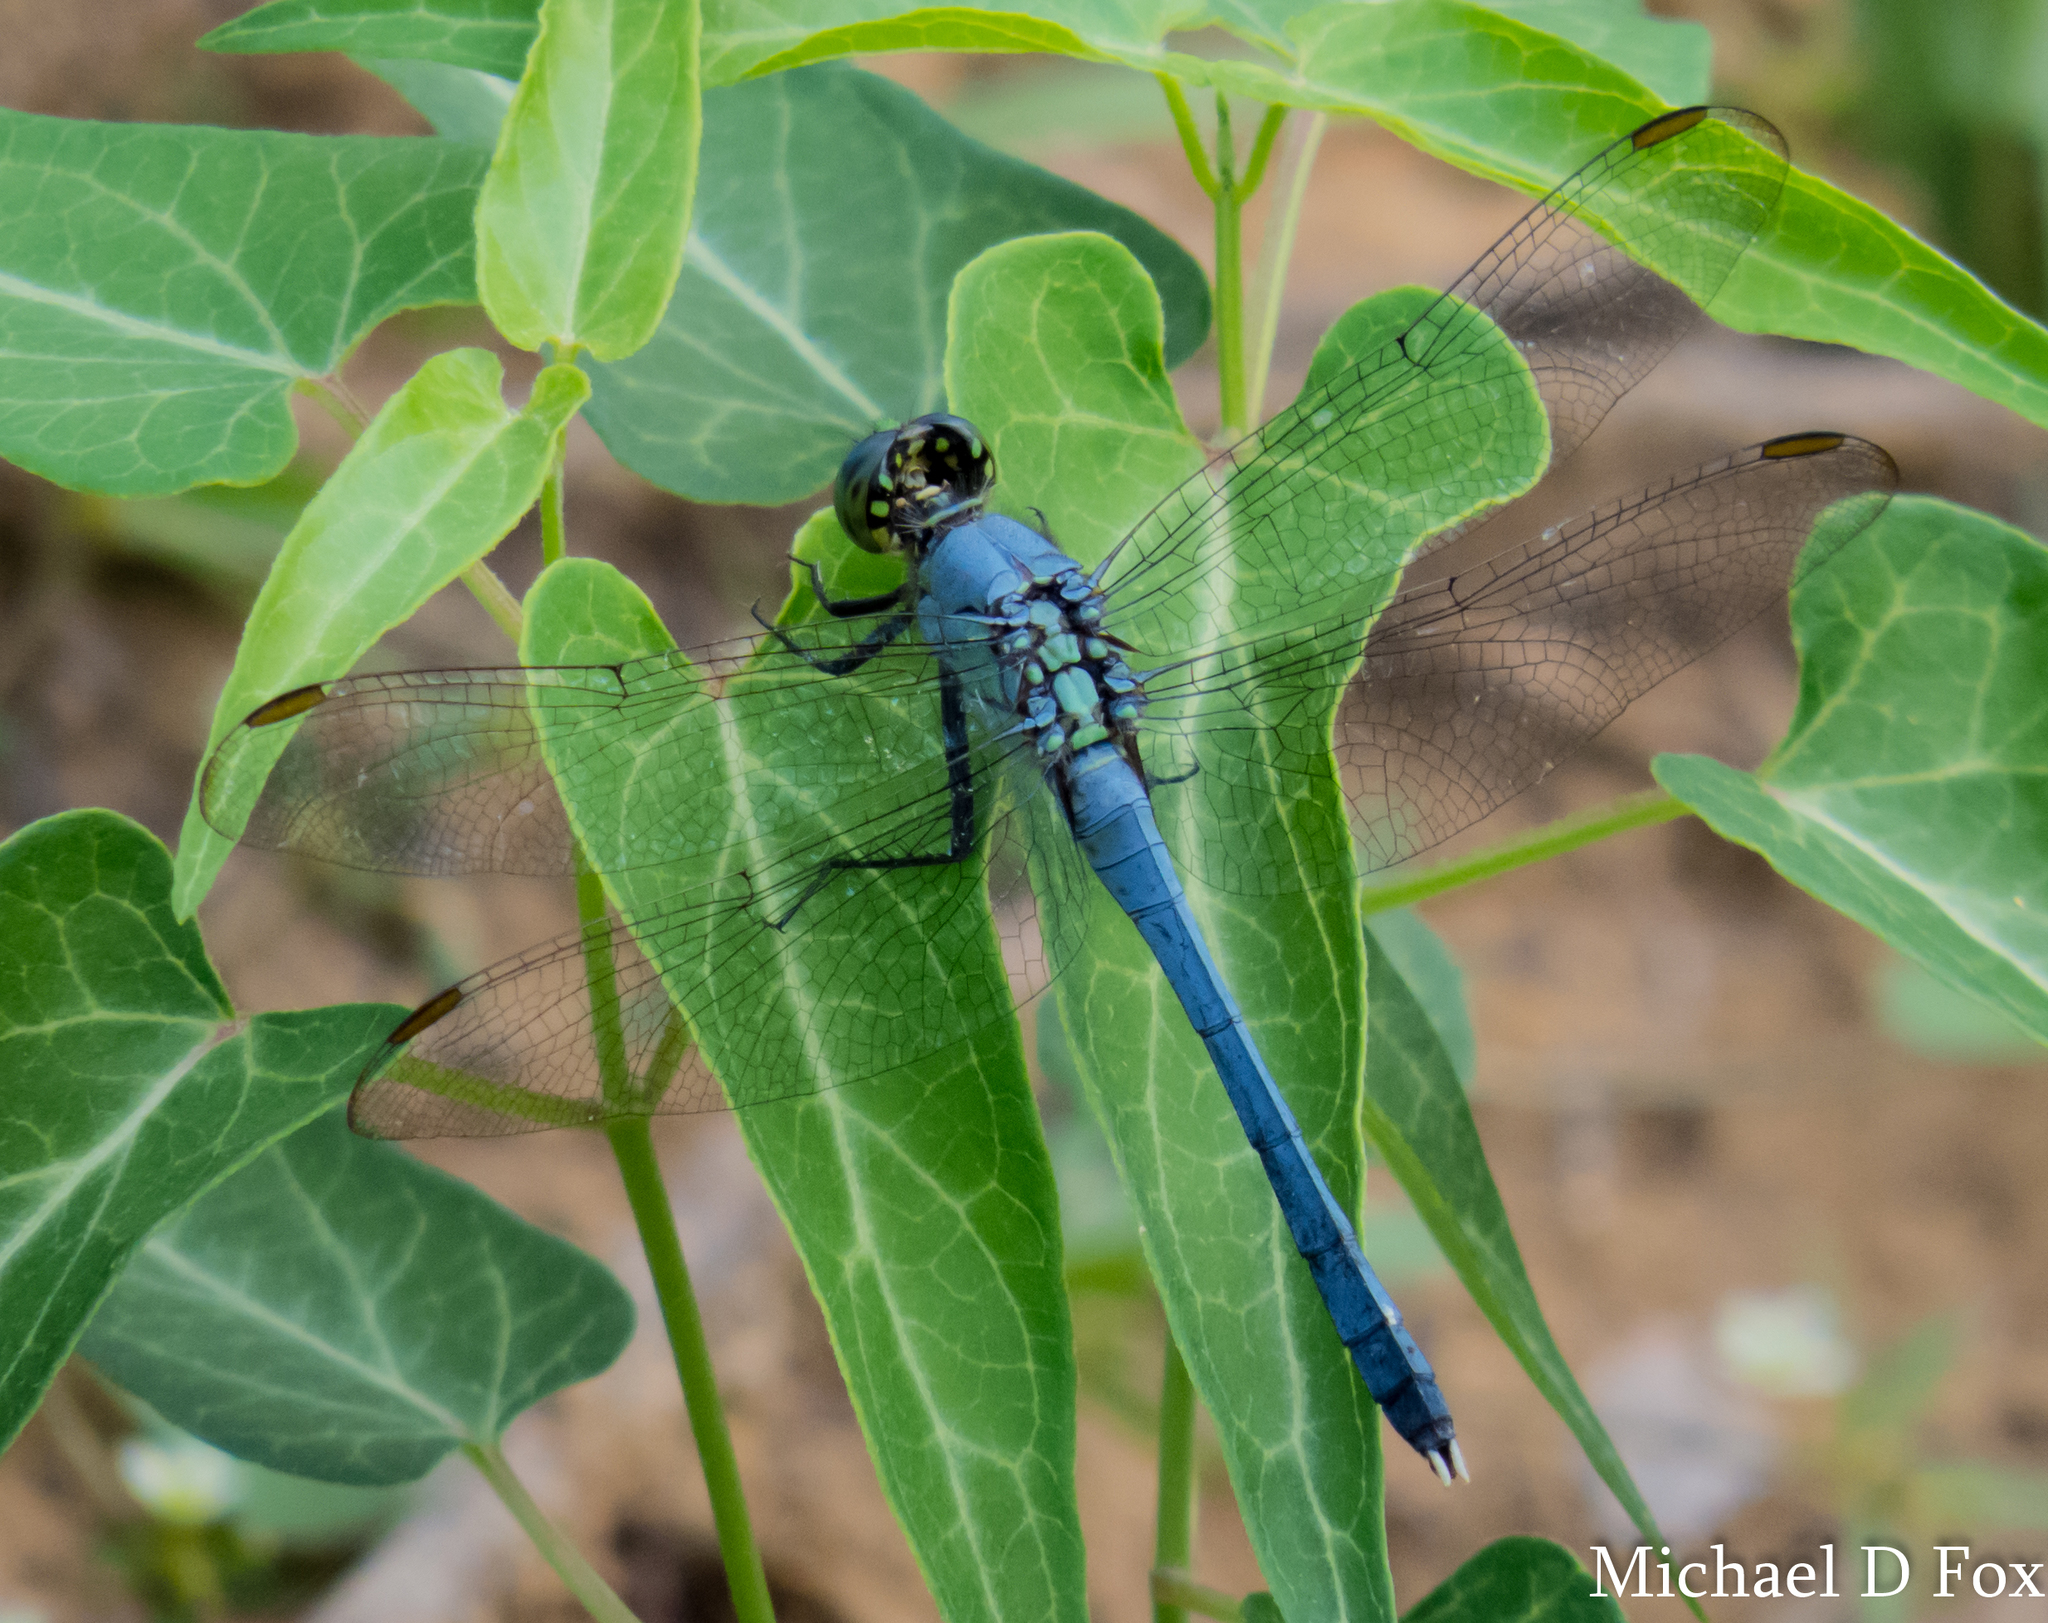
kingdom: Animalia
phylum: Arthropoda
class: Insecta
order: Odonata
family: Libellulidae
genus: Erythemis
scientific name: Erythemis simplicicollis
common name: Eastern pondhawk
